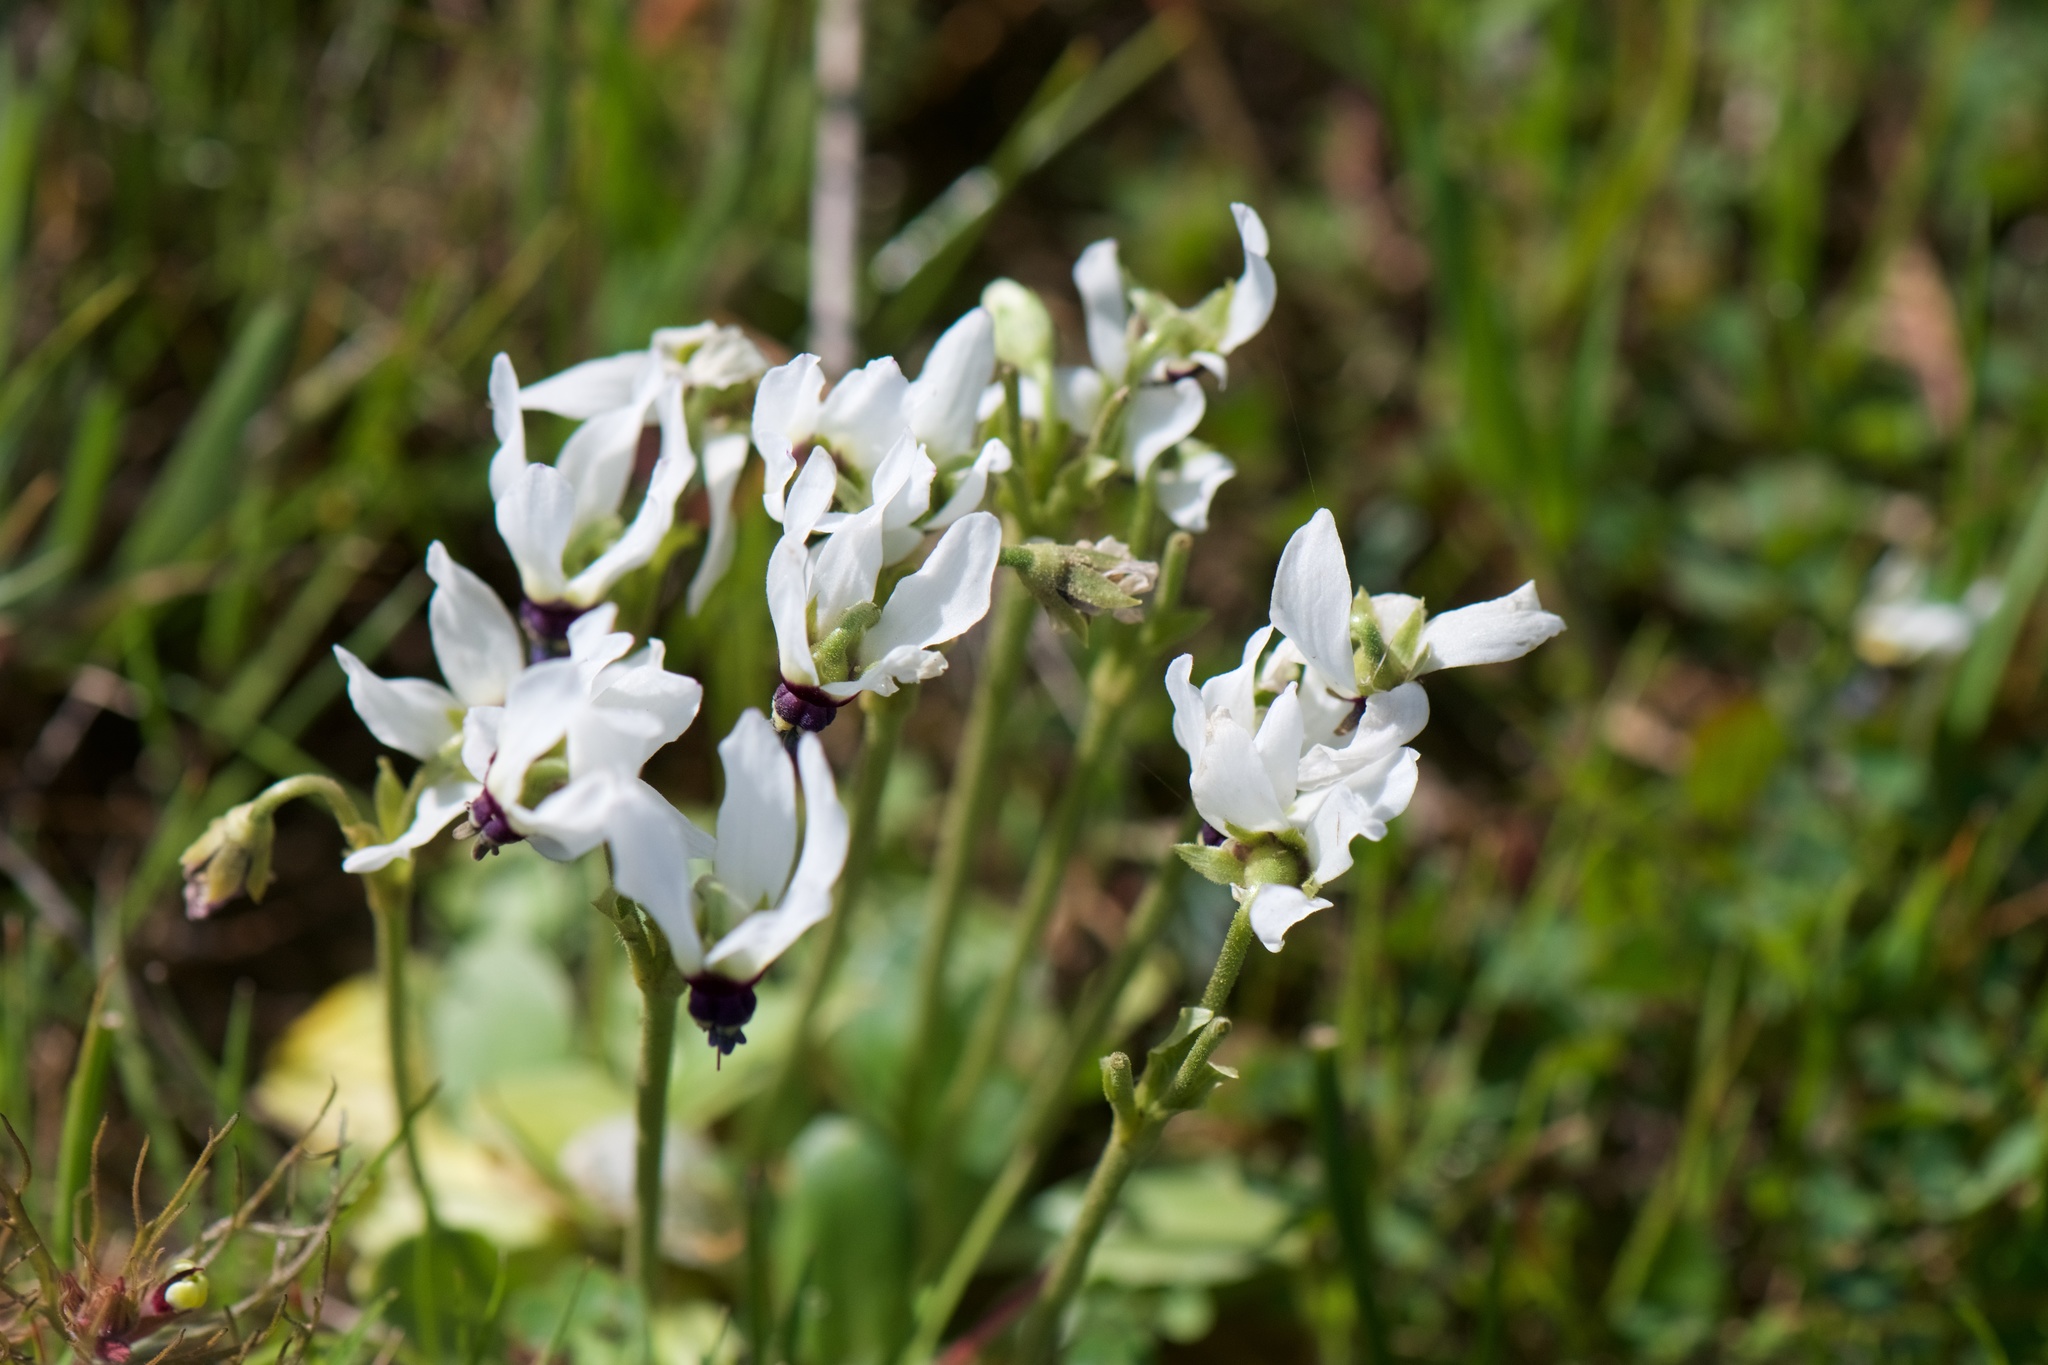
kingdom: Plantae
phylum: Tracheophyta
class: Magnoliopsida
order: Ericales
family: Primulaceae
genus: Dodecatheon
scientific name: Dodecatheon clevelandii
